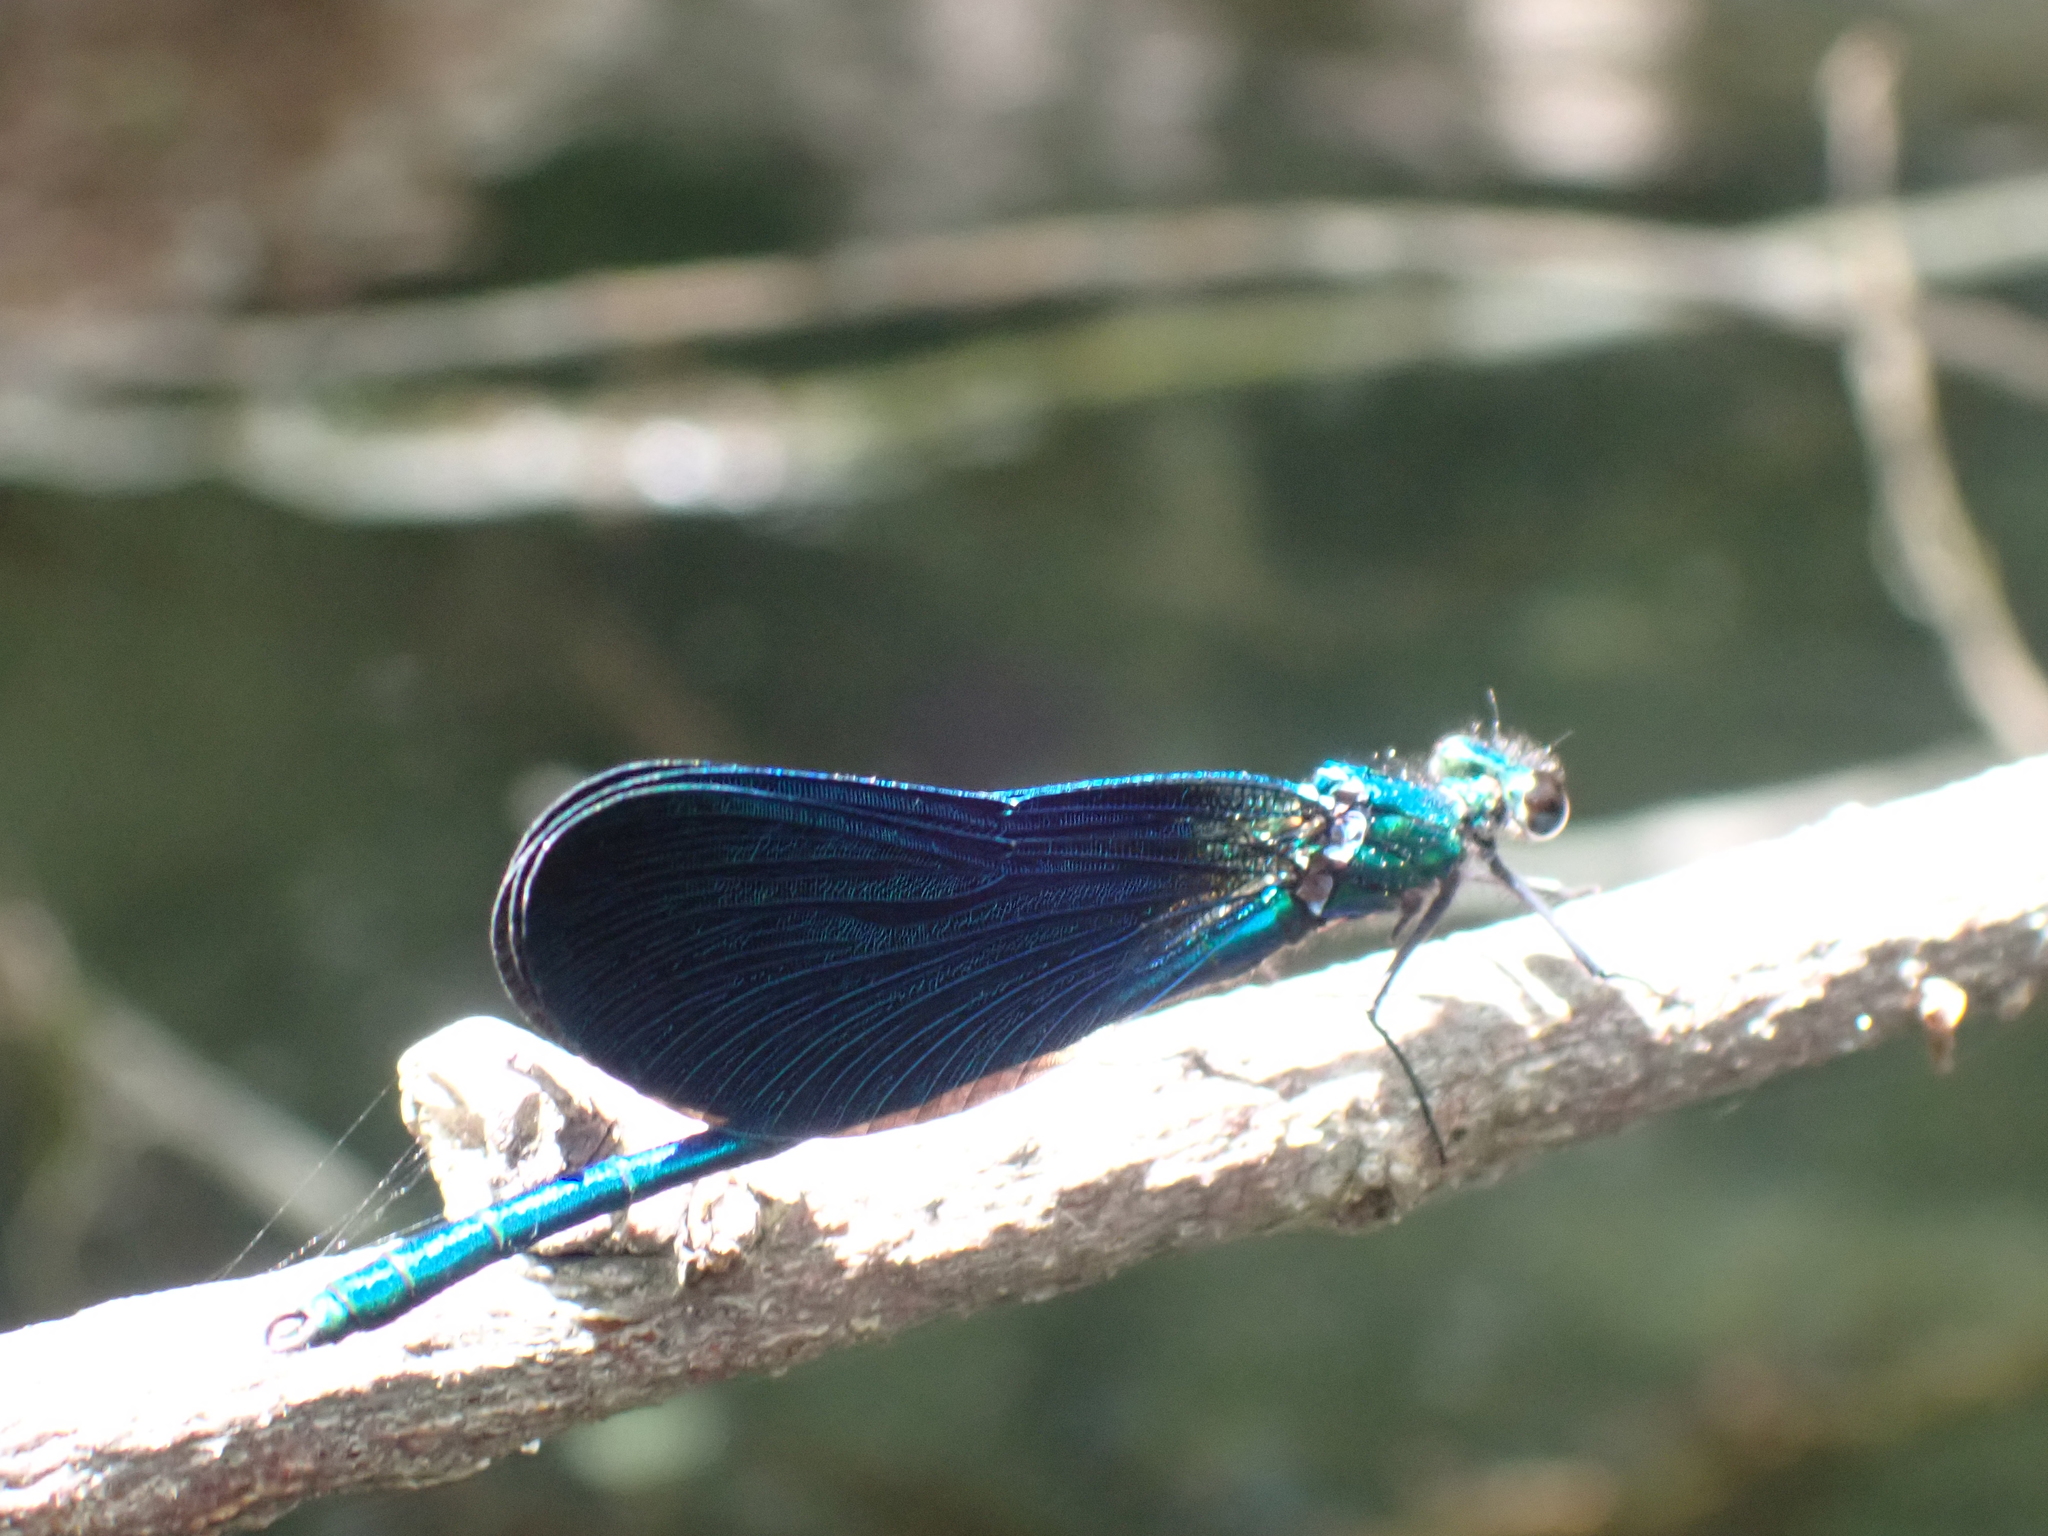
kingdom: Animalia
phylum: Arthropoda
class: Insecta
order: Odonata
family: Calopterygidae
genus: Calopteryx
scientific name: Calopteryx virgo
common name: Beautiful demoiselle
